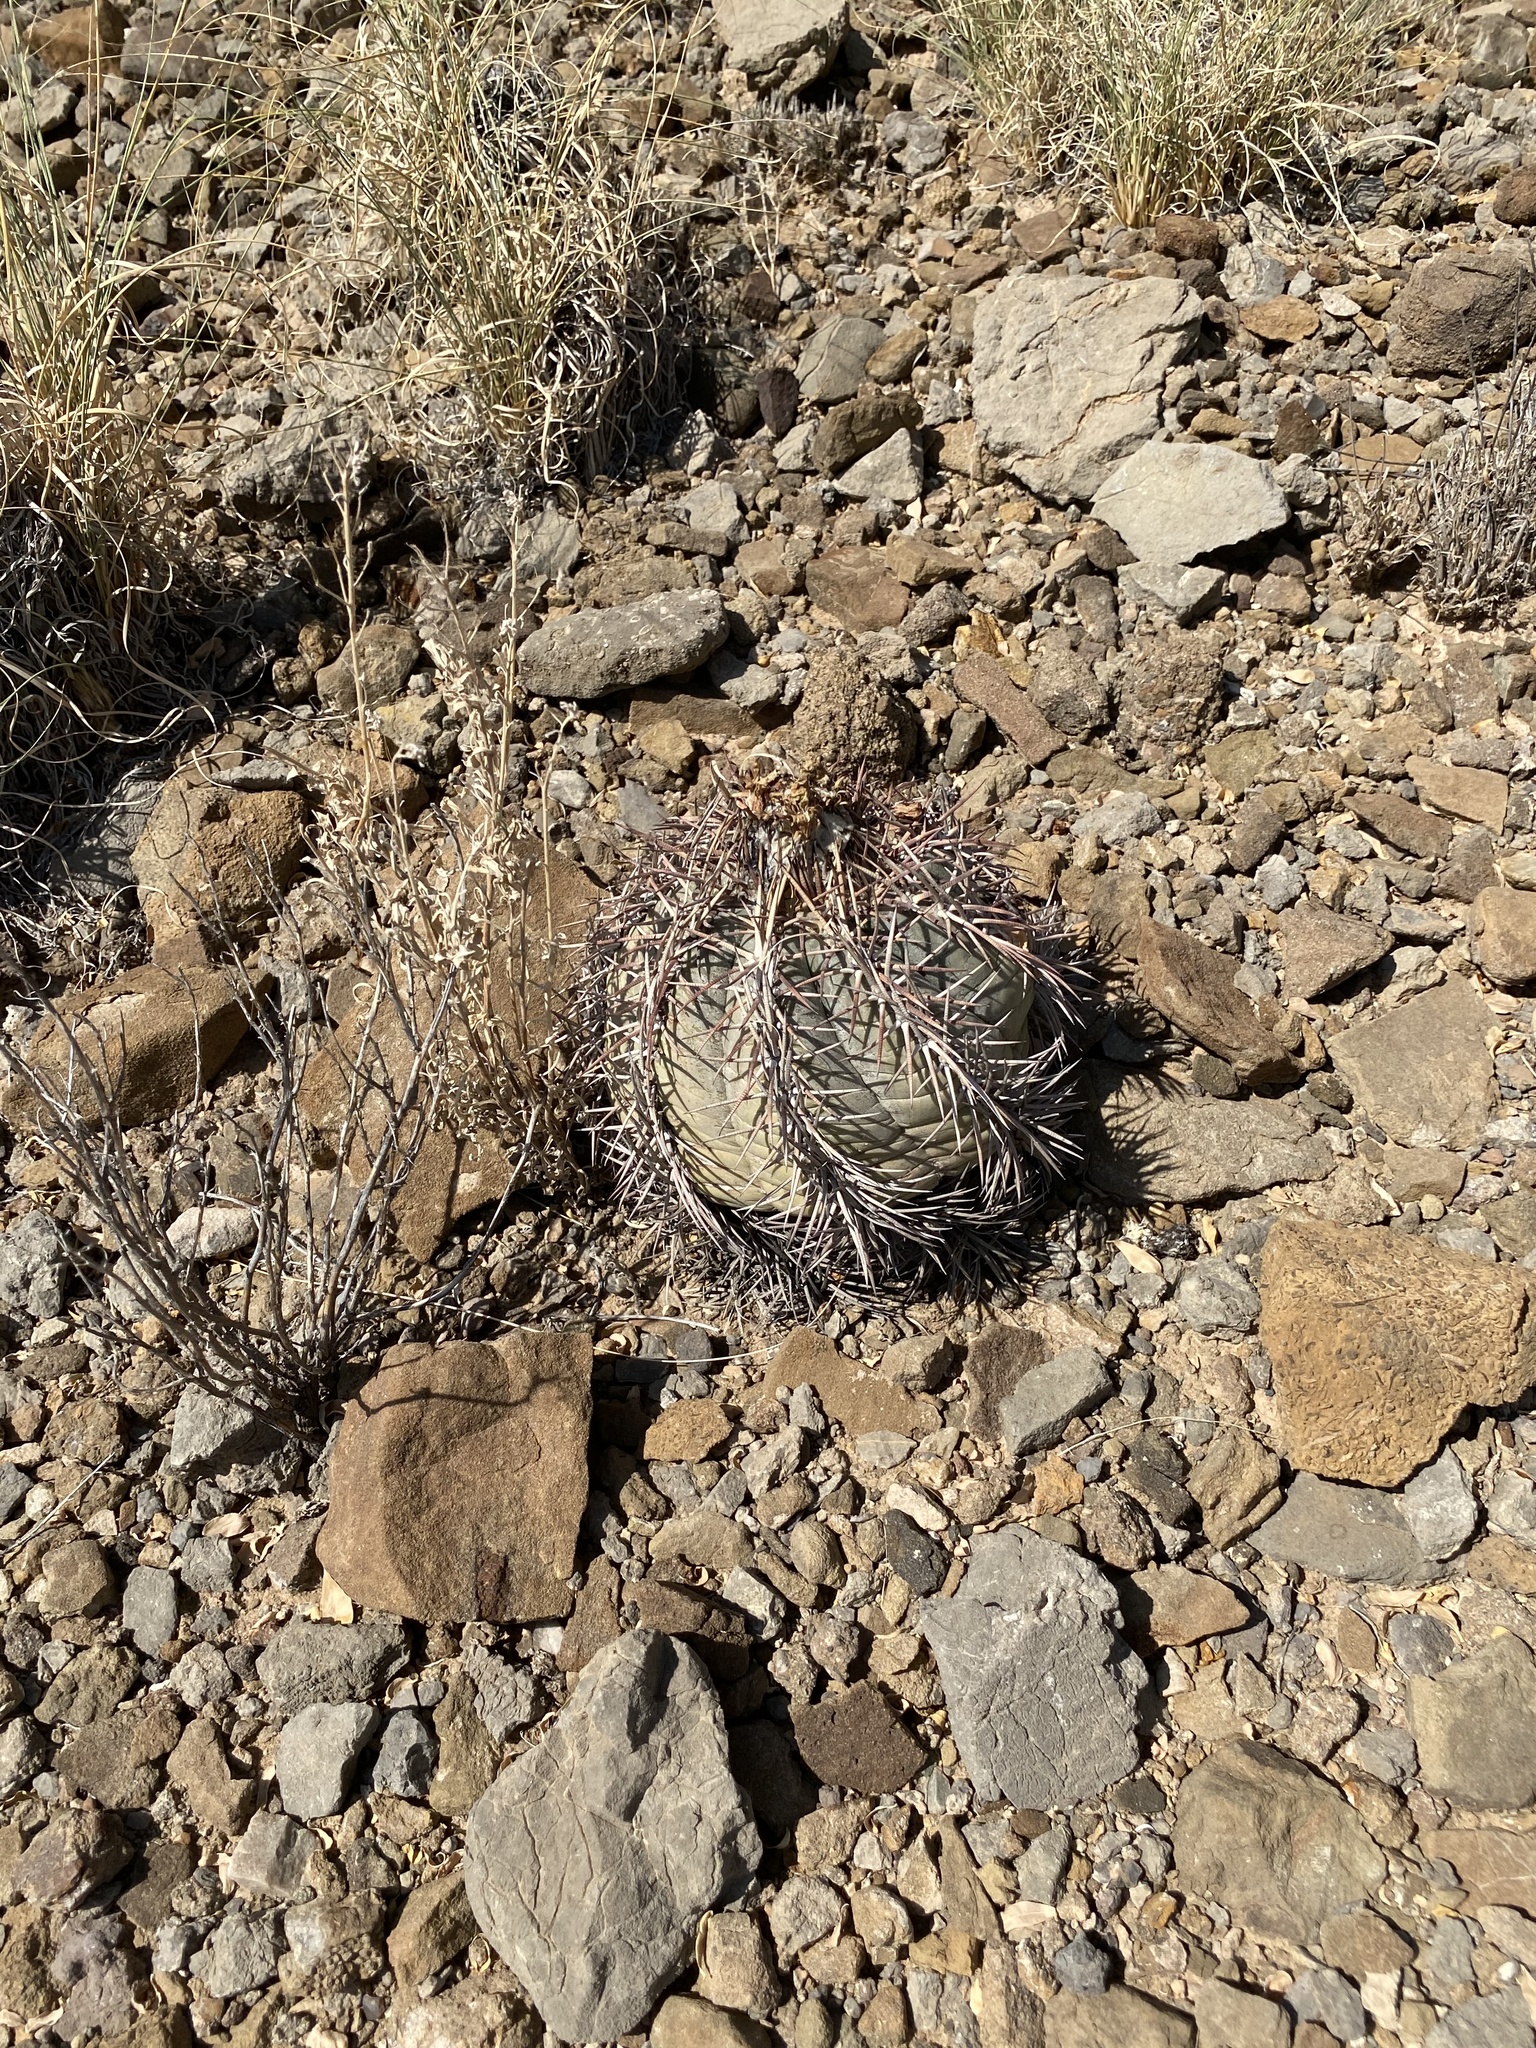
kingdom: Plantae
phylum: Tracheophyta
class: Magnoliopsida
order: Caryophyllales
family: Cactaceae
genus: Echinocactus
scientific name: Echinocactus horizonthalonius
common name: Devilshead
